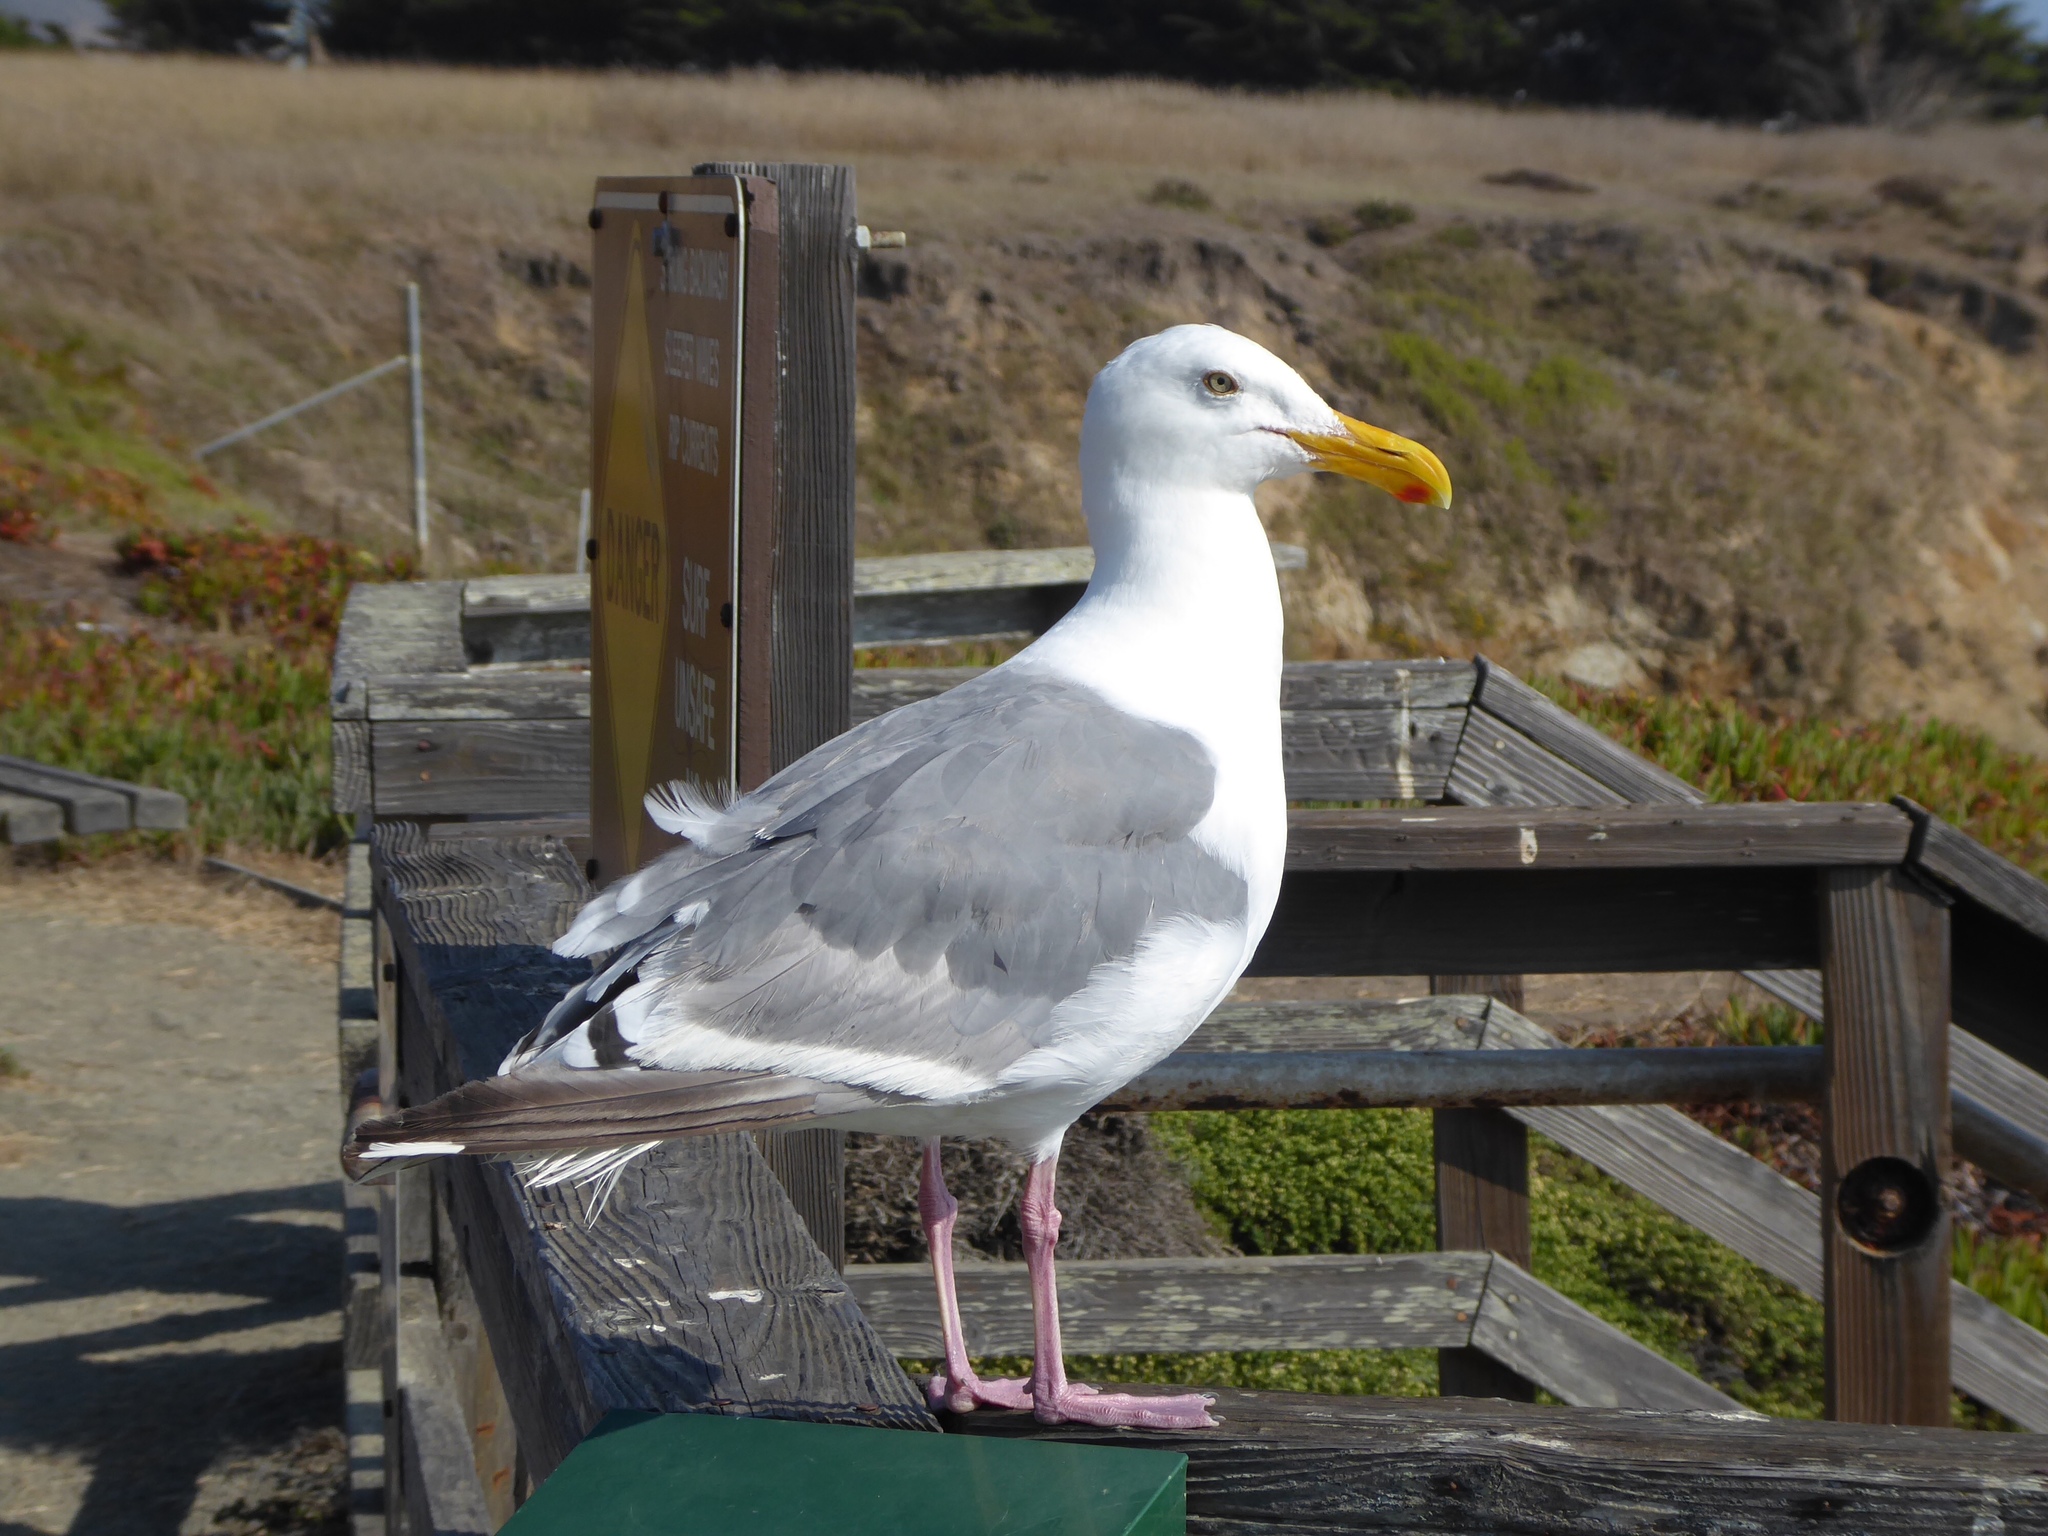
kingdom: Animalia
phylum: Chordata
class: Aves
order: Charadriiformes
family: Laridae
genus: Larus
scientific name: Larus occidentalis
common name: Western gull
